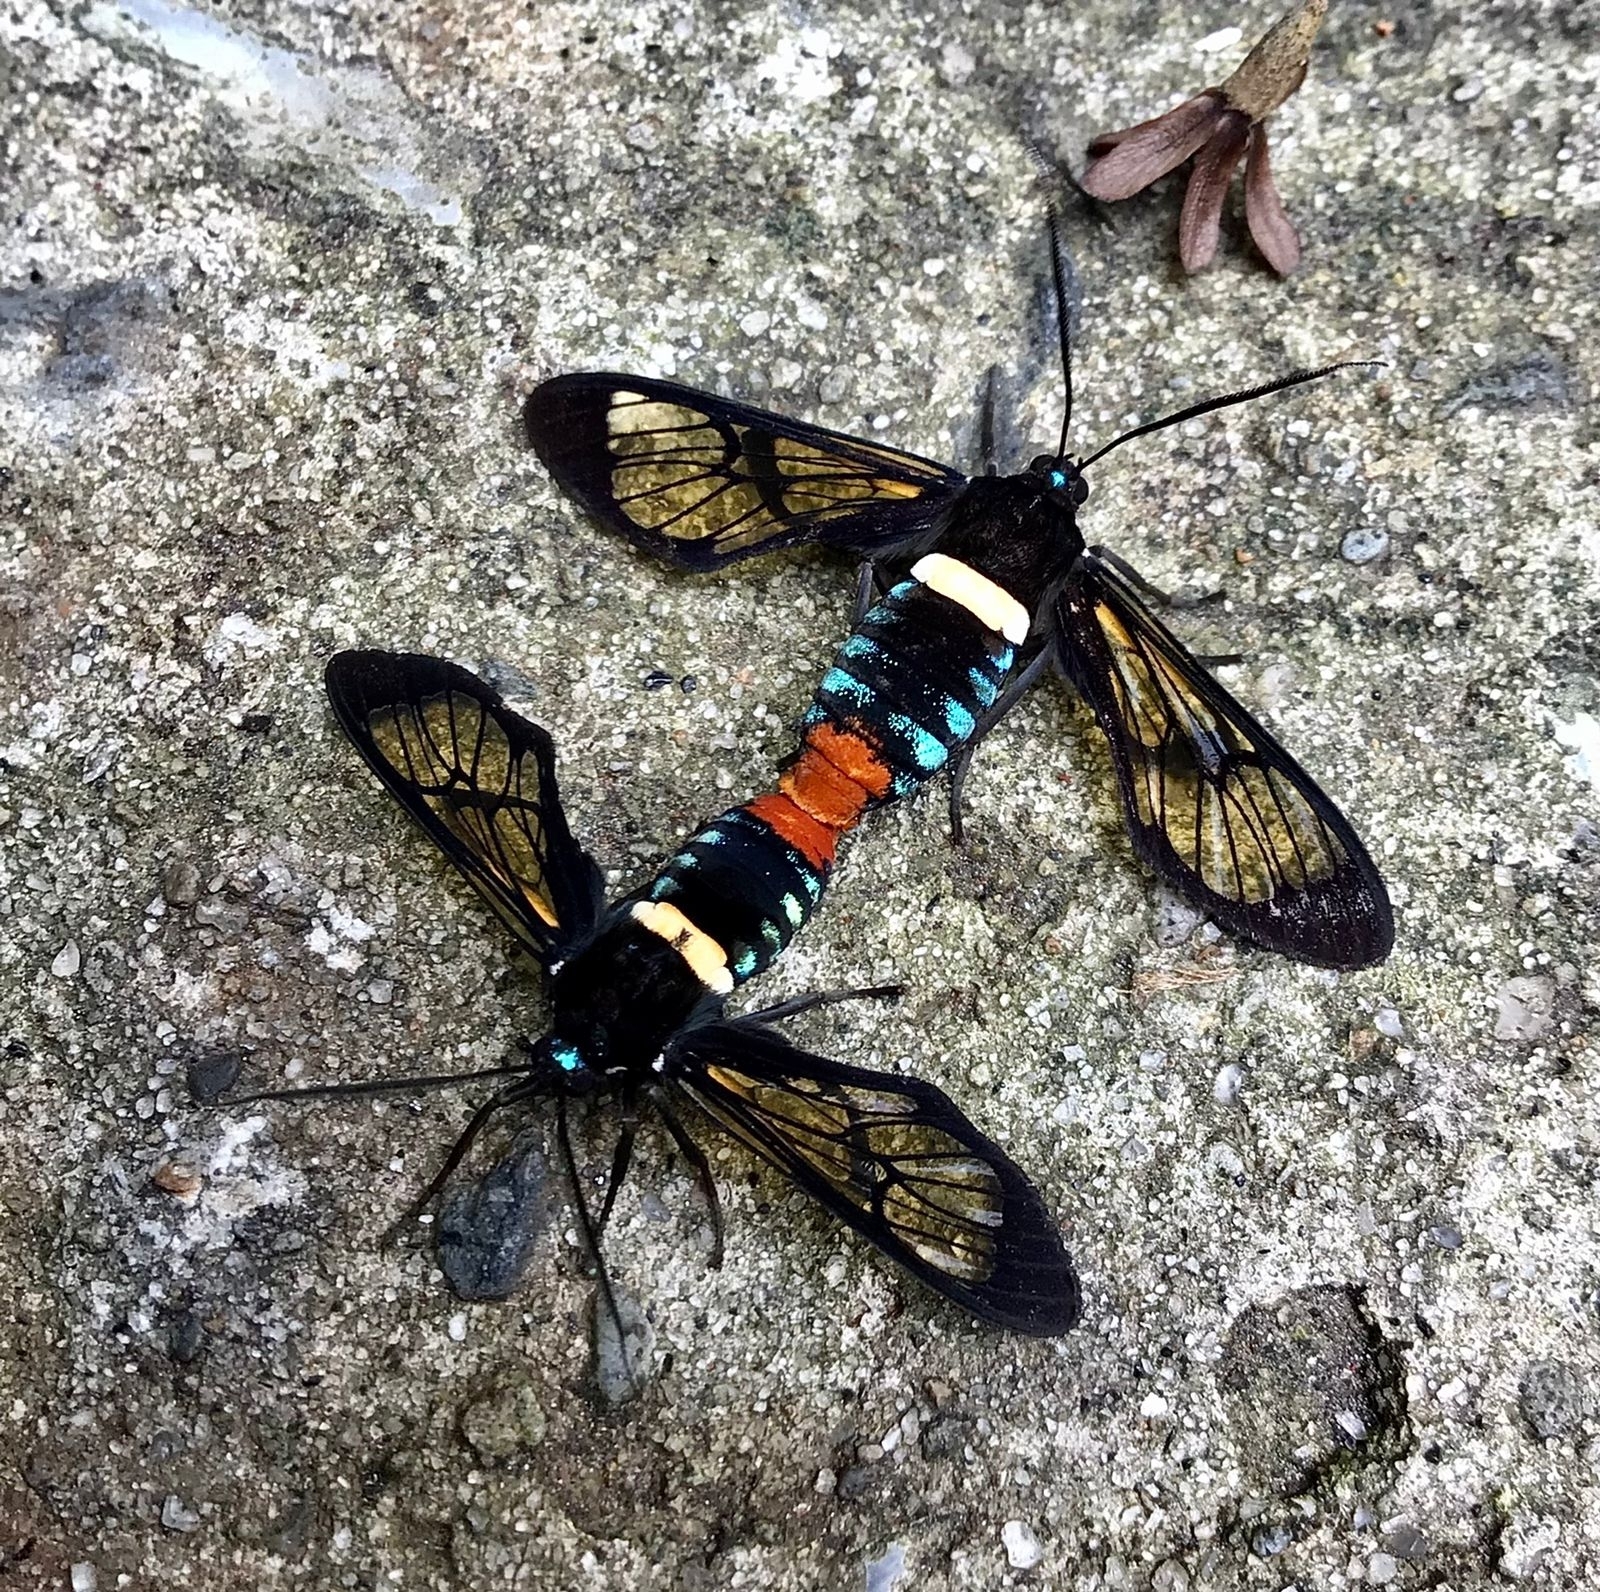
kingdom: Animalia
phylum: Arthropoda
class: Insecta
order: Lepidoptera
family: Erebidae
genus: Autochloris
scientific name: Autochloris mathani
